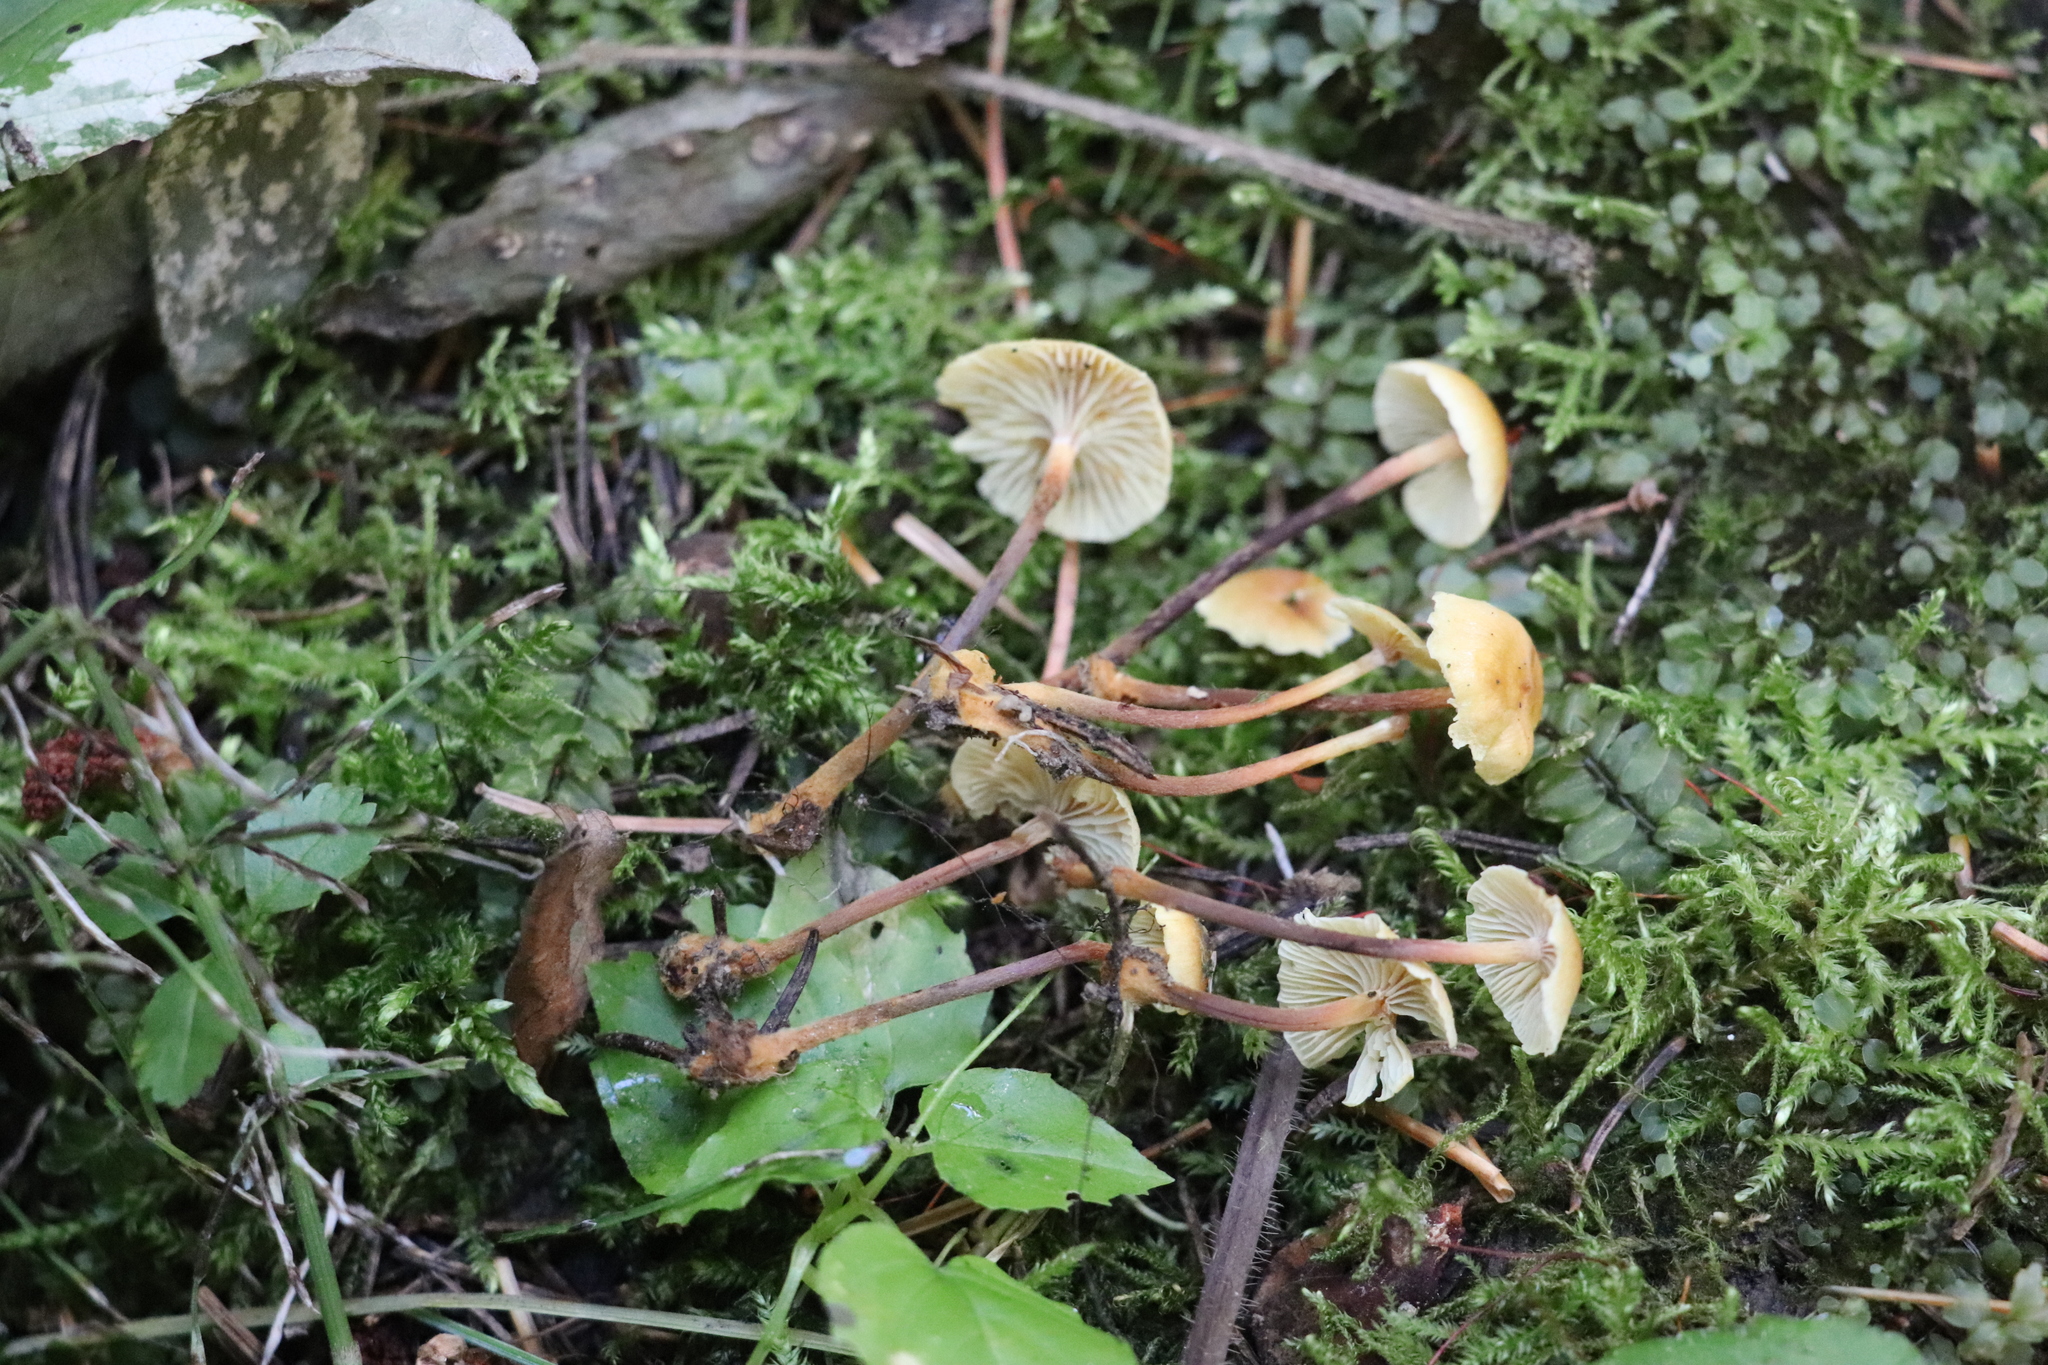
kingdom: Fungi
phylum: Basidiomycota
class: Agaricomycetes
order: Agaricales
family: Mycenaceae
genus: Xeromphalina
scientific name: Xeromphalina cauticinalis
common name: Pinelitter gingertail
